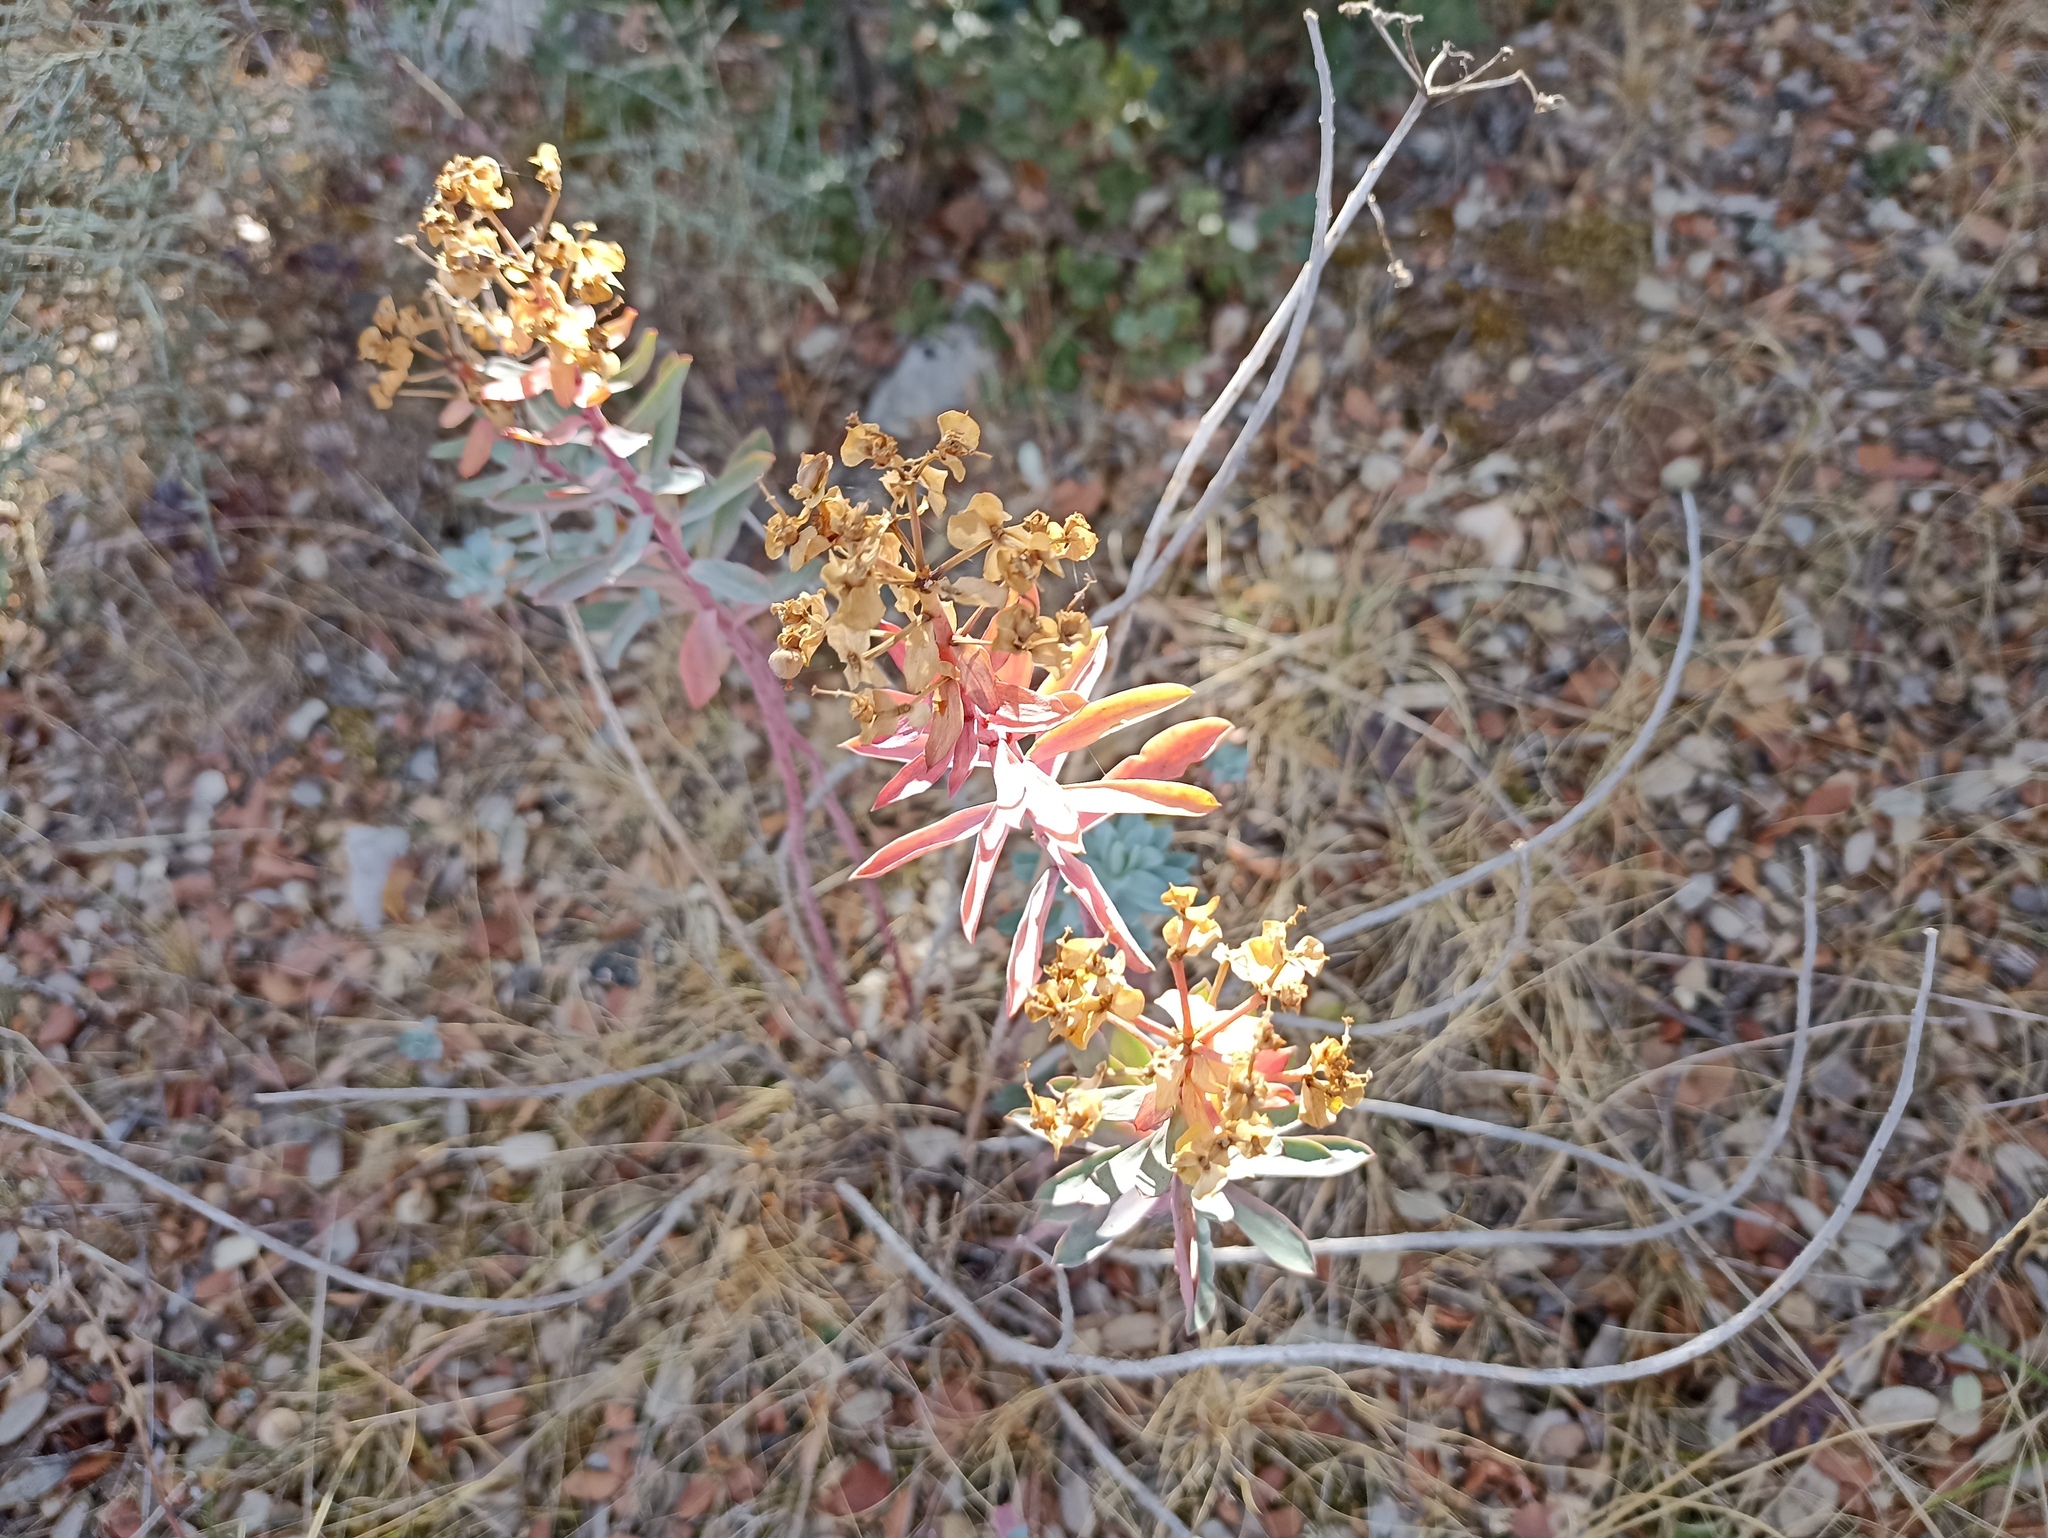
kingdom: Plantae
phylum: Tracheophyta
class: Magnoliopsida
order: Malpighiales
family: Euphorbiaceae
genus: Euphorbia
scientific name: Euphorbia nicaeensis
